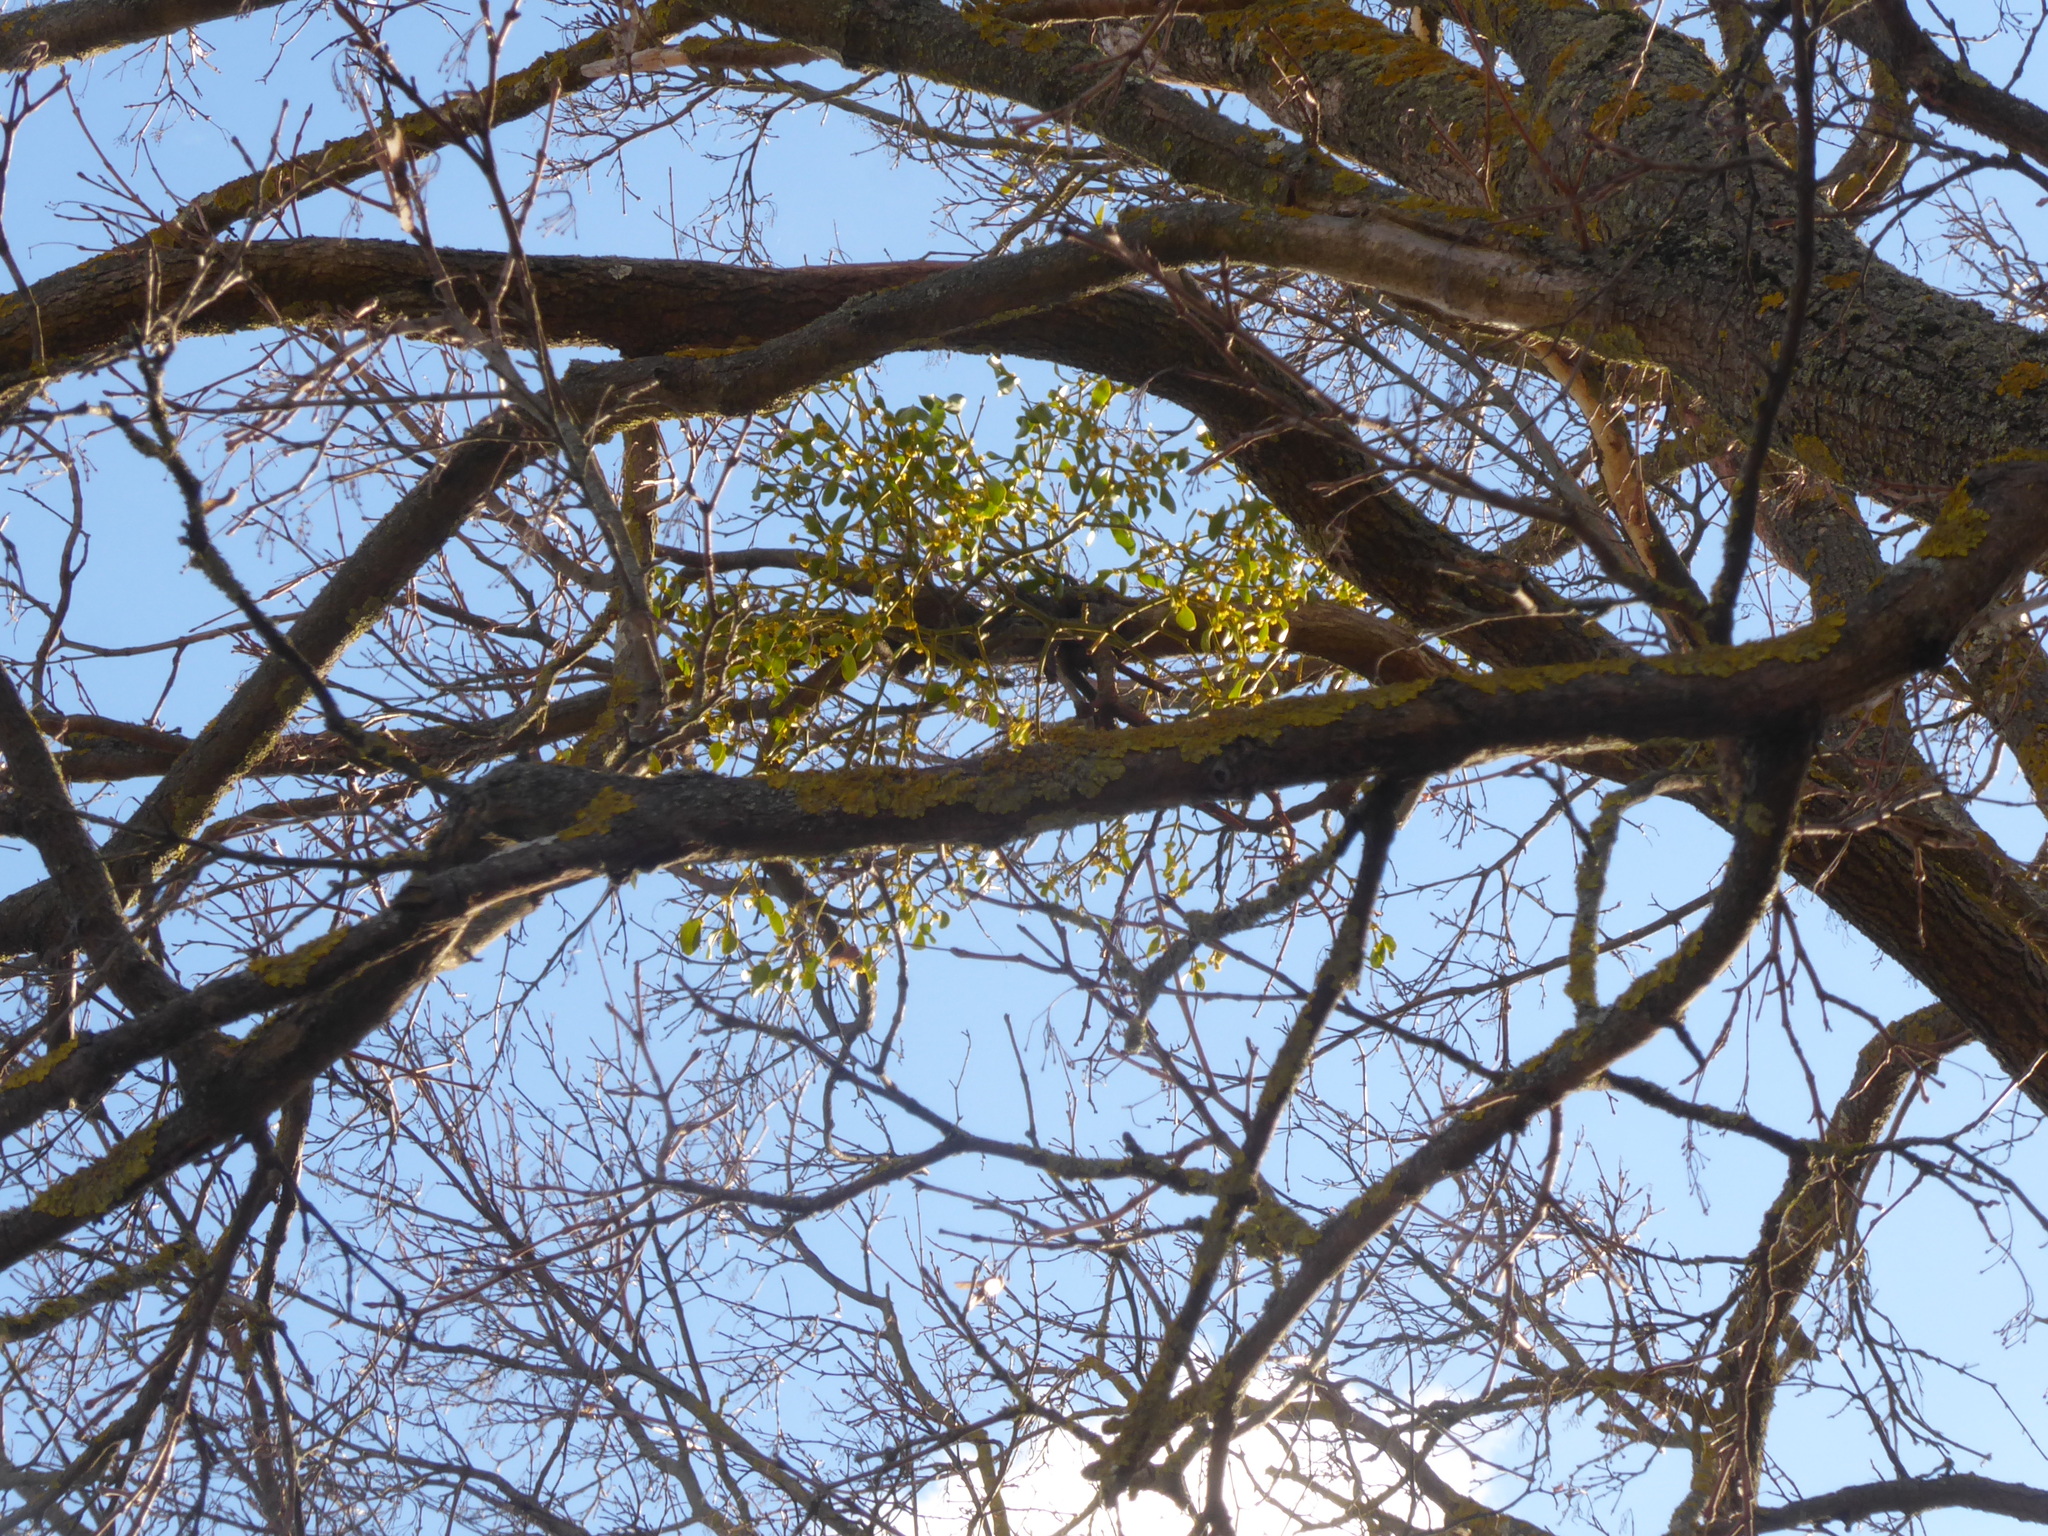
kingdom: Plantae
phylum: Tracheophyta
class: Magnoliopsida
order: Santalales
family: Loranthaceae
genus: Loranthus
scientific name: Loranthus europaeus
